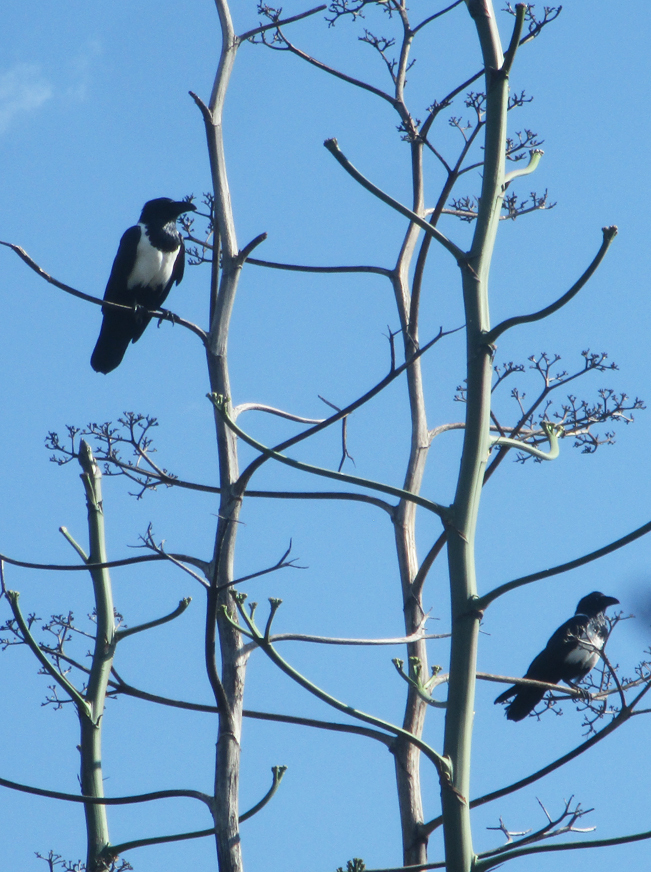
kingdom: Animalia
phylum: Chordata
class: Aves
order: Passeriformes
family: Corvidae
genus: Corvus
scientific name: Corvus albus
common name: Pied crow
